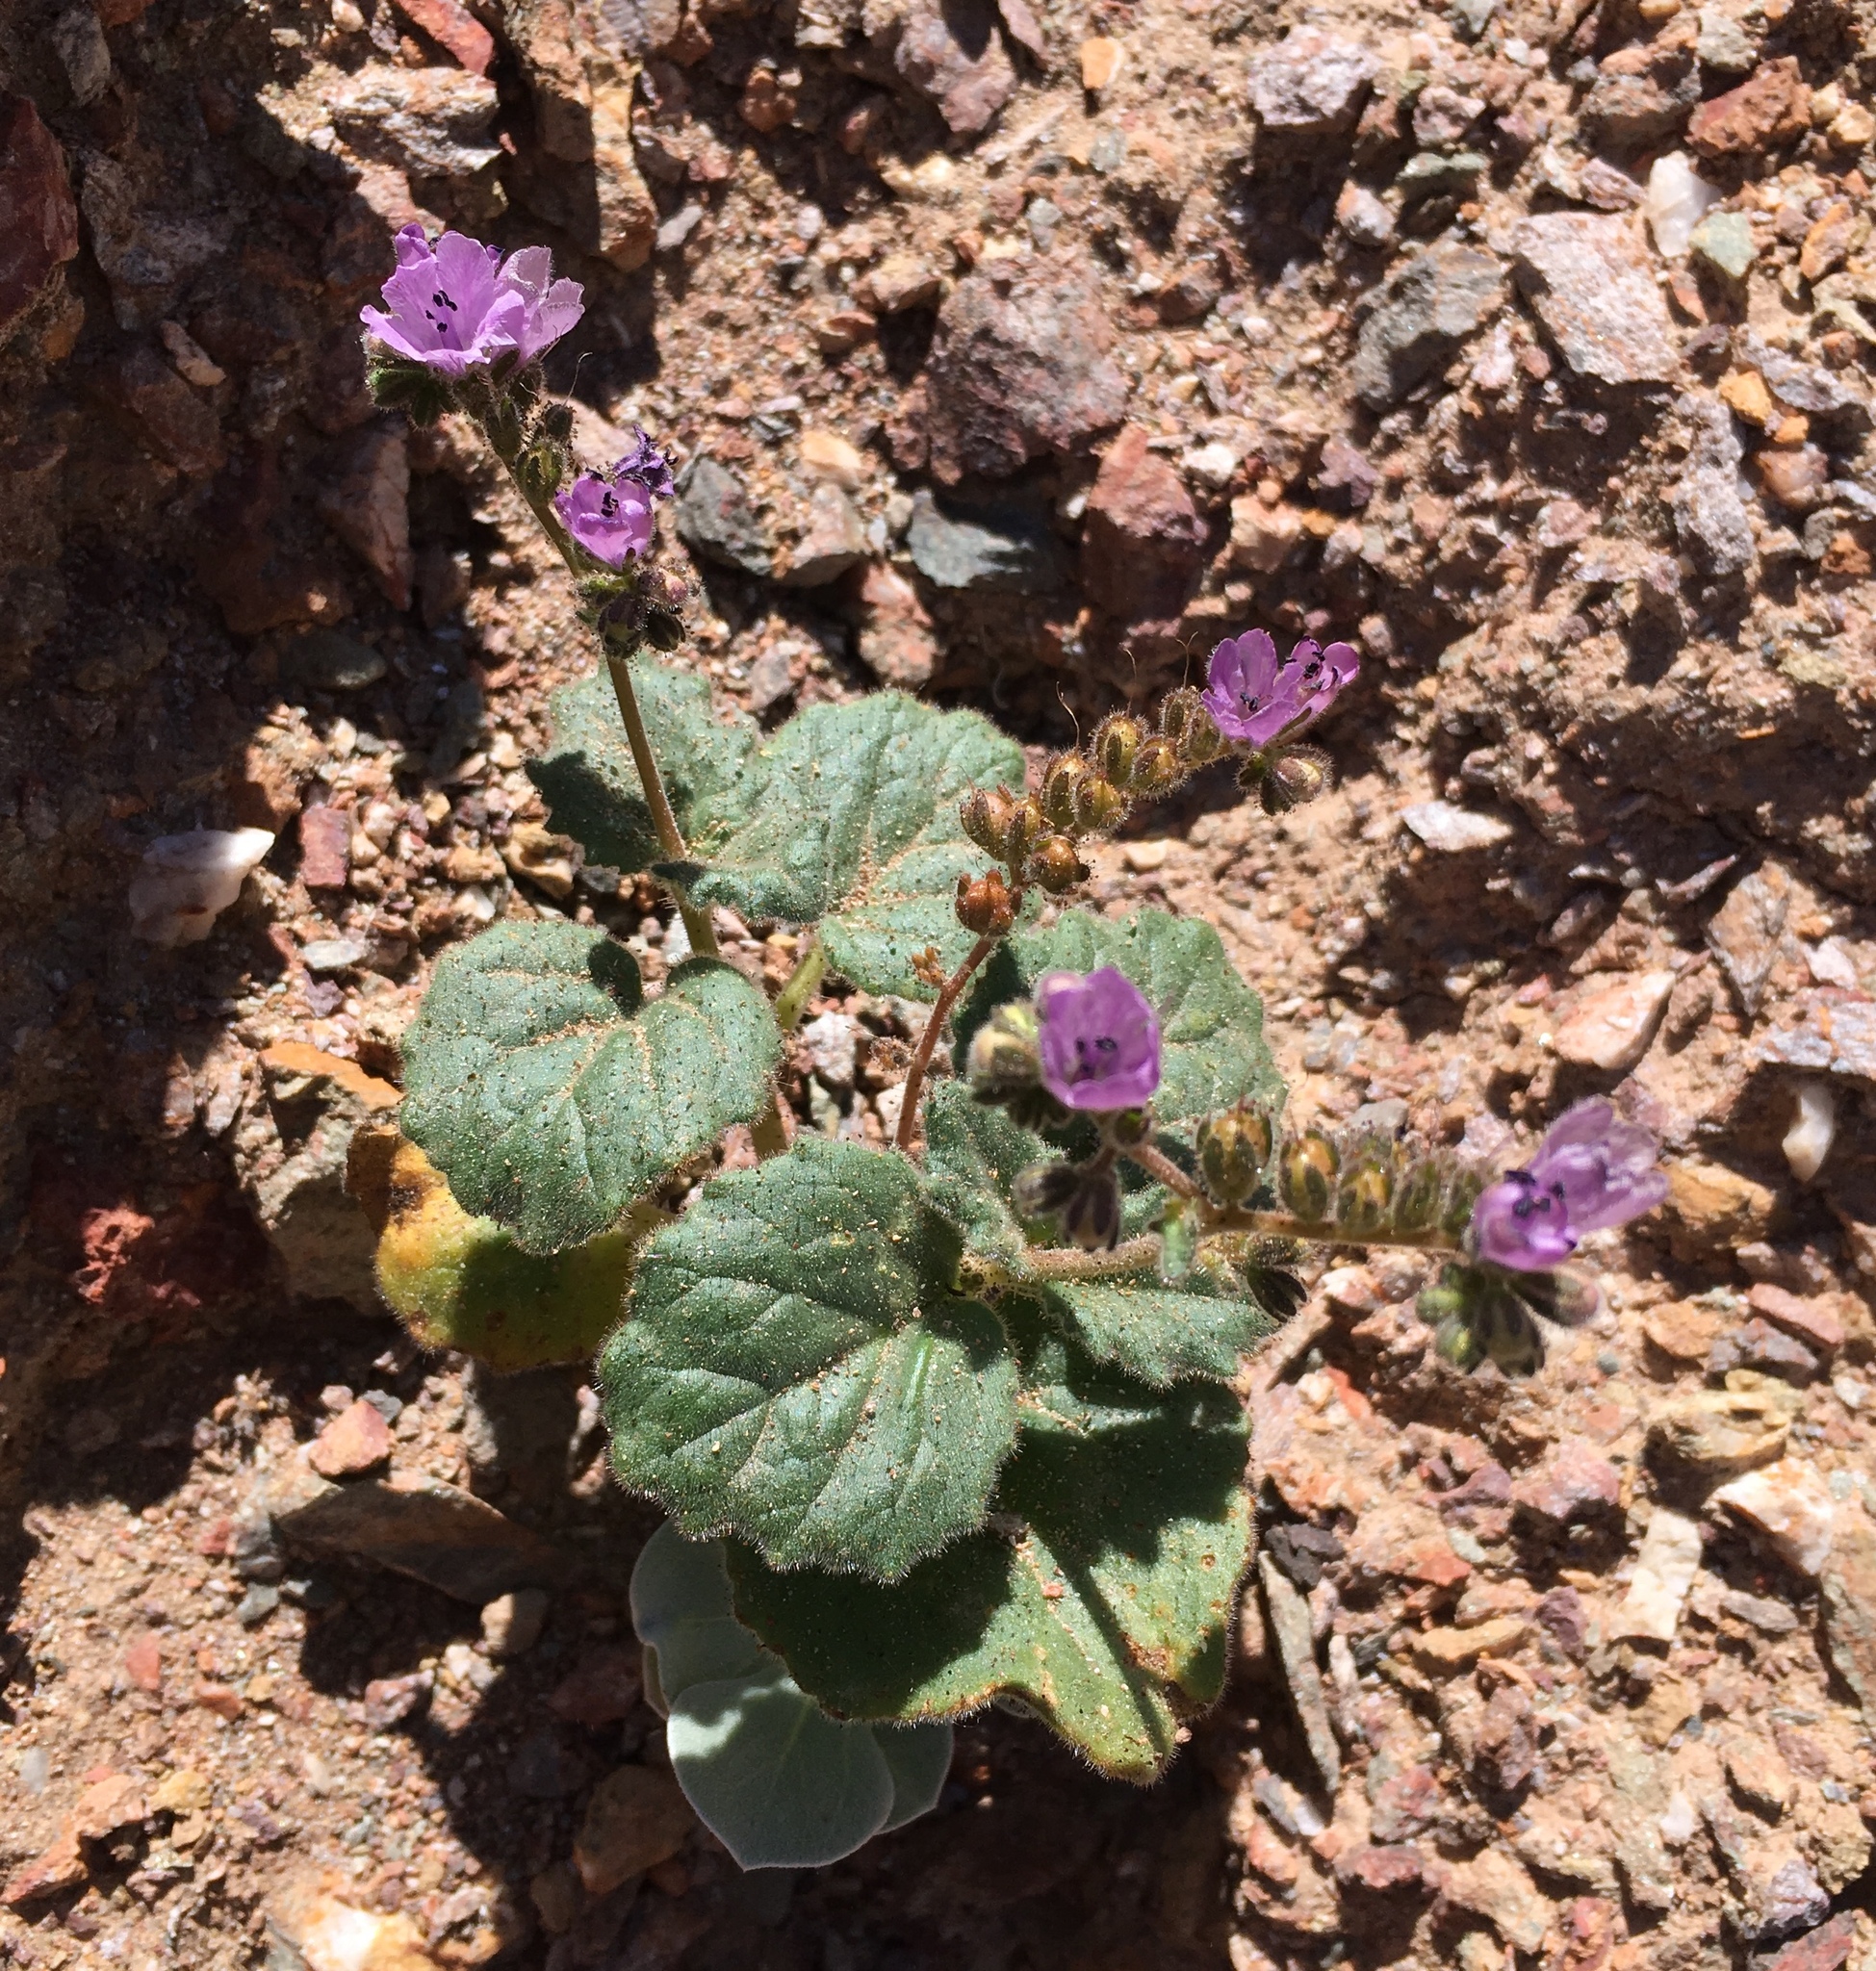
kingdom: Plantae
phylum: Tracheophyta
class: Magnoliopsida
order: Boraginales
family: Hydrophyllaceae
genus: Phacelia
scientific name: Phacelia calthifolia
